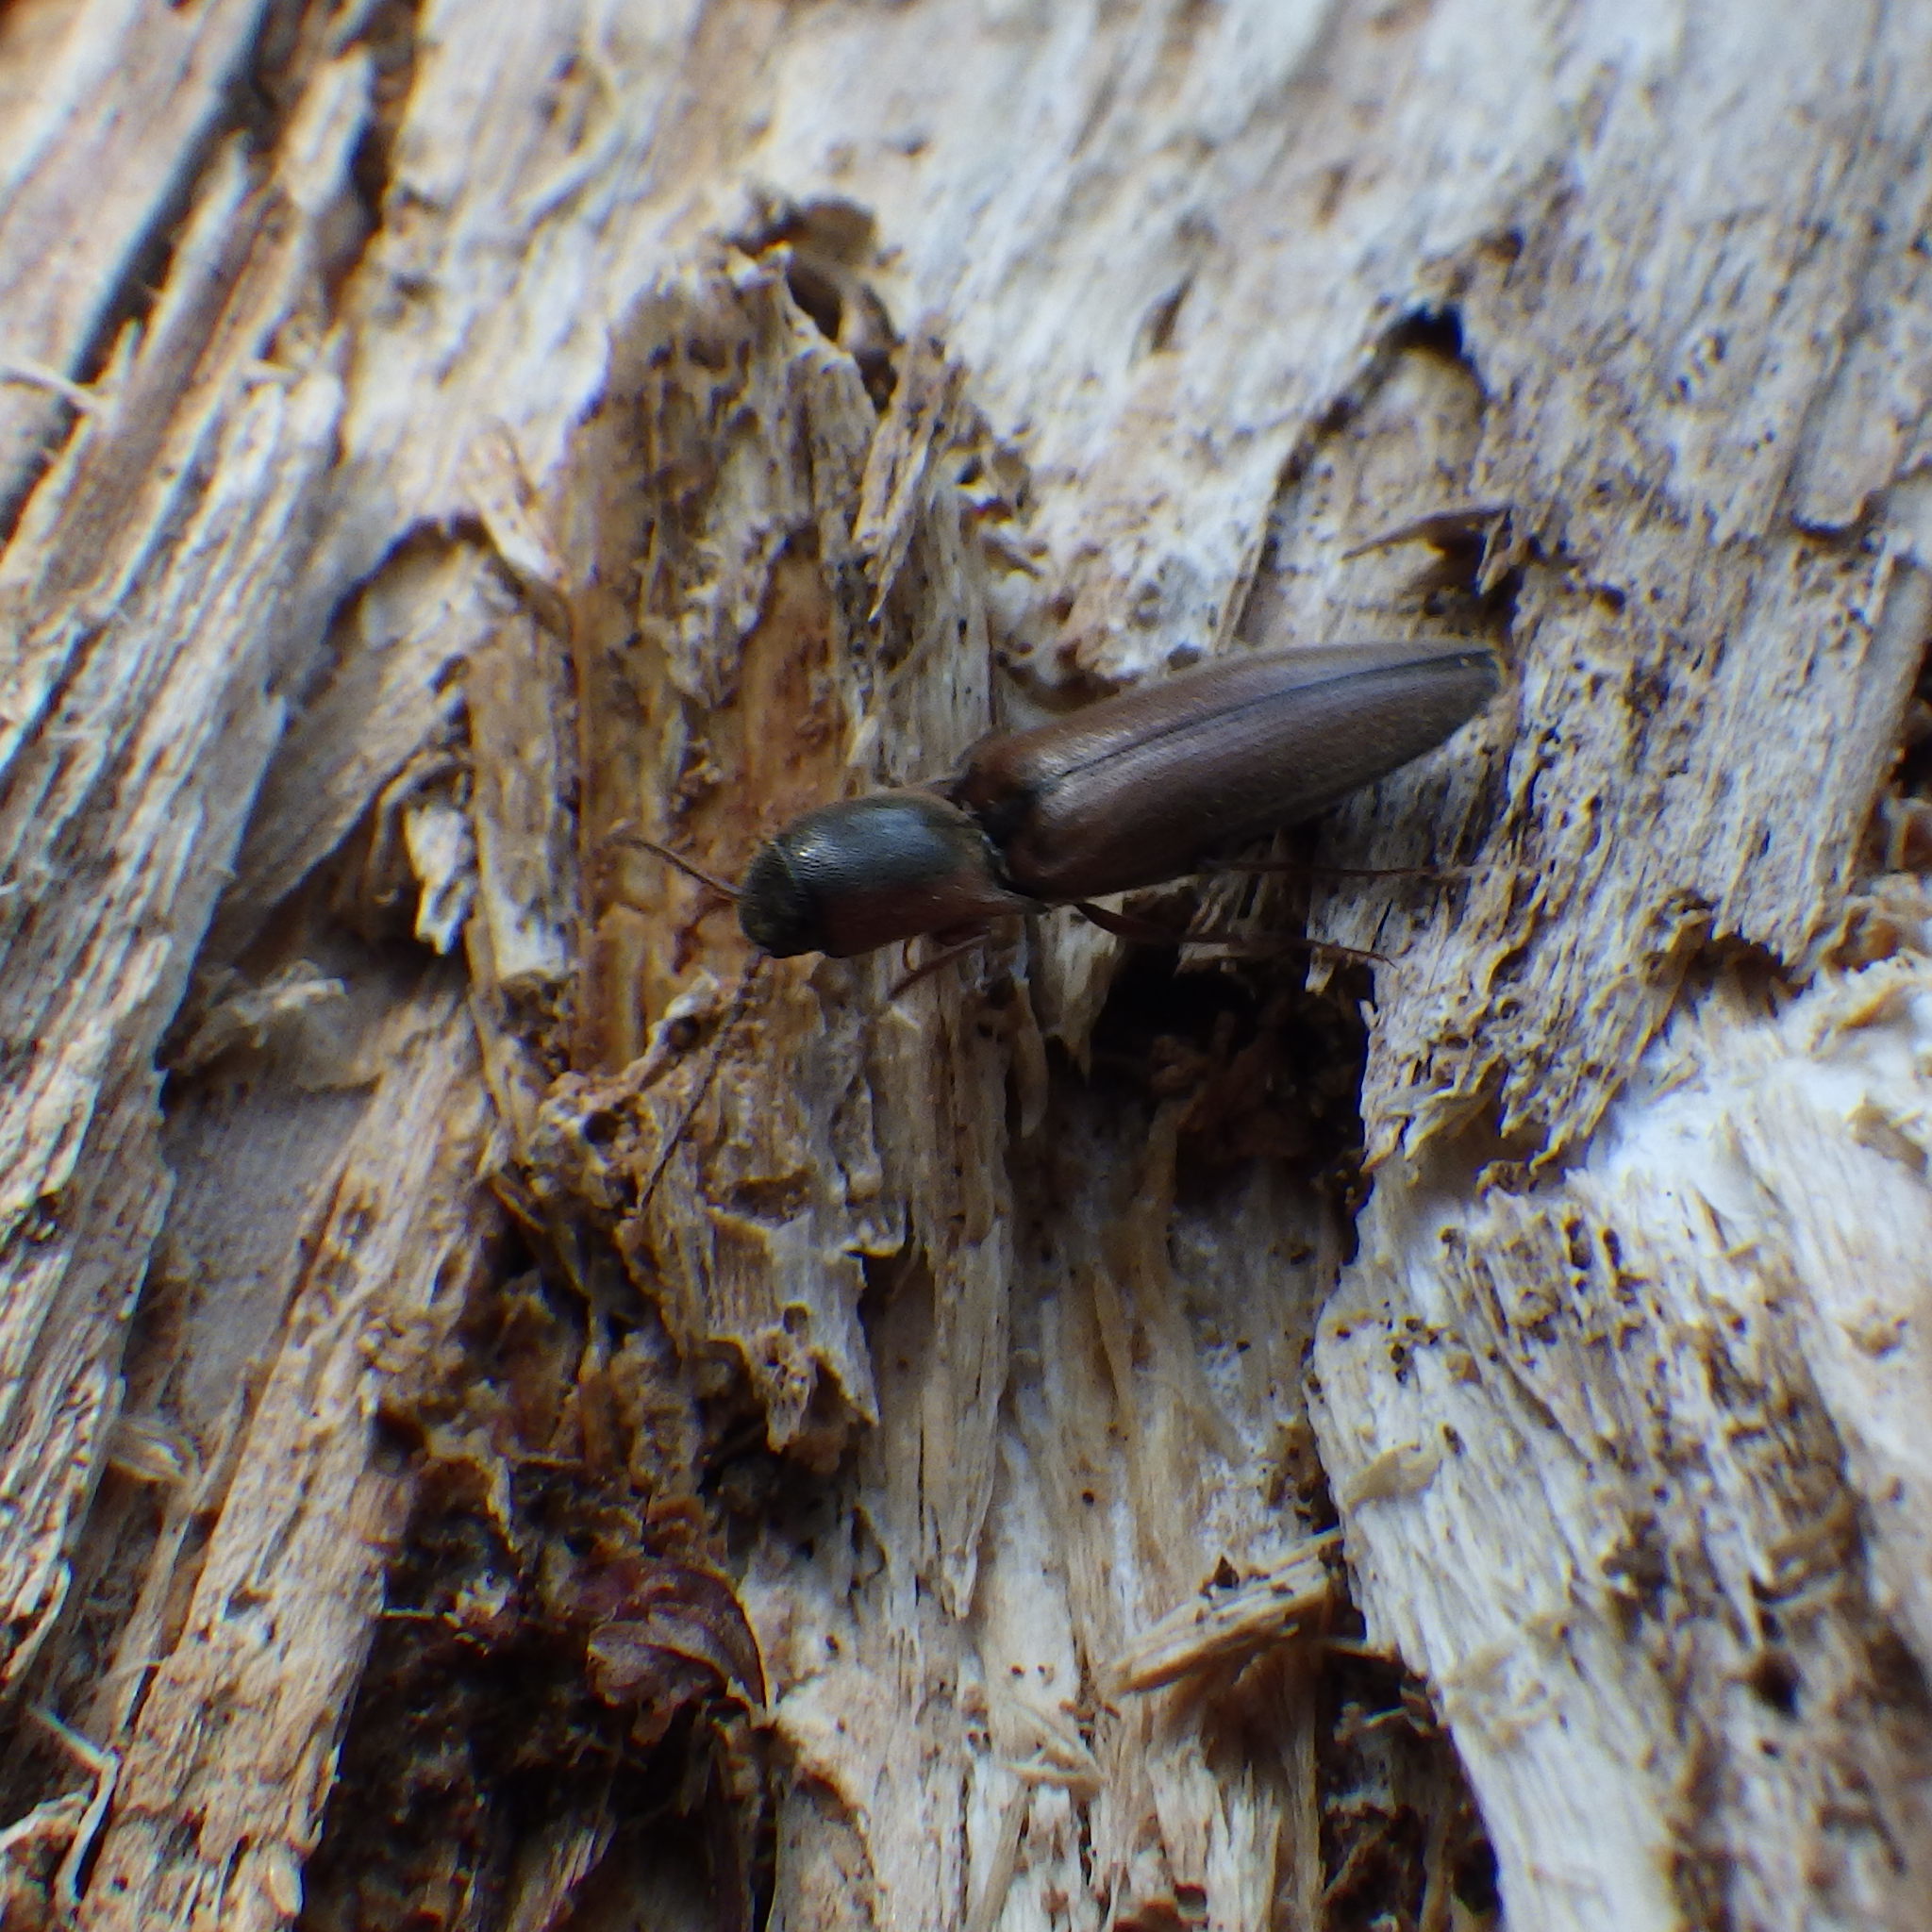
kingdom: Animalia
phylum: Arthropoda
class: Insecta
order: Coleoptera
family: Elateridae
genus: Agriotes
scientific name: Agriotes collaris
